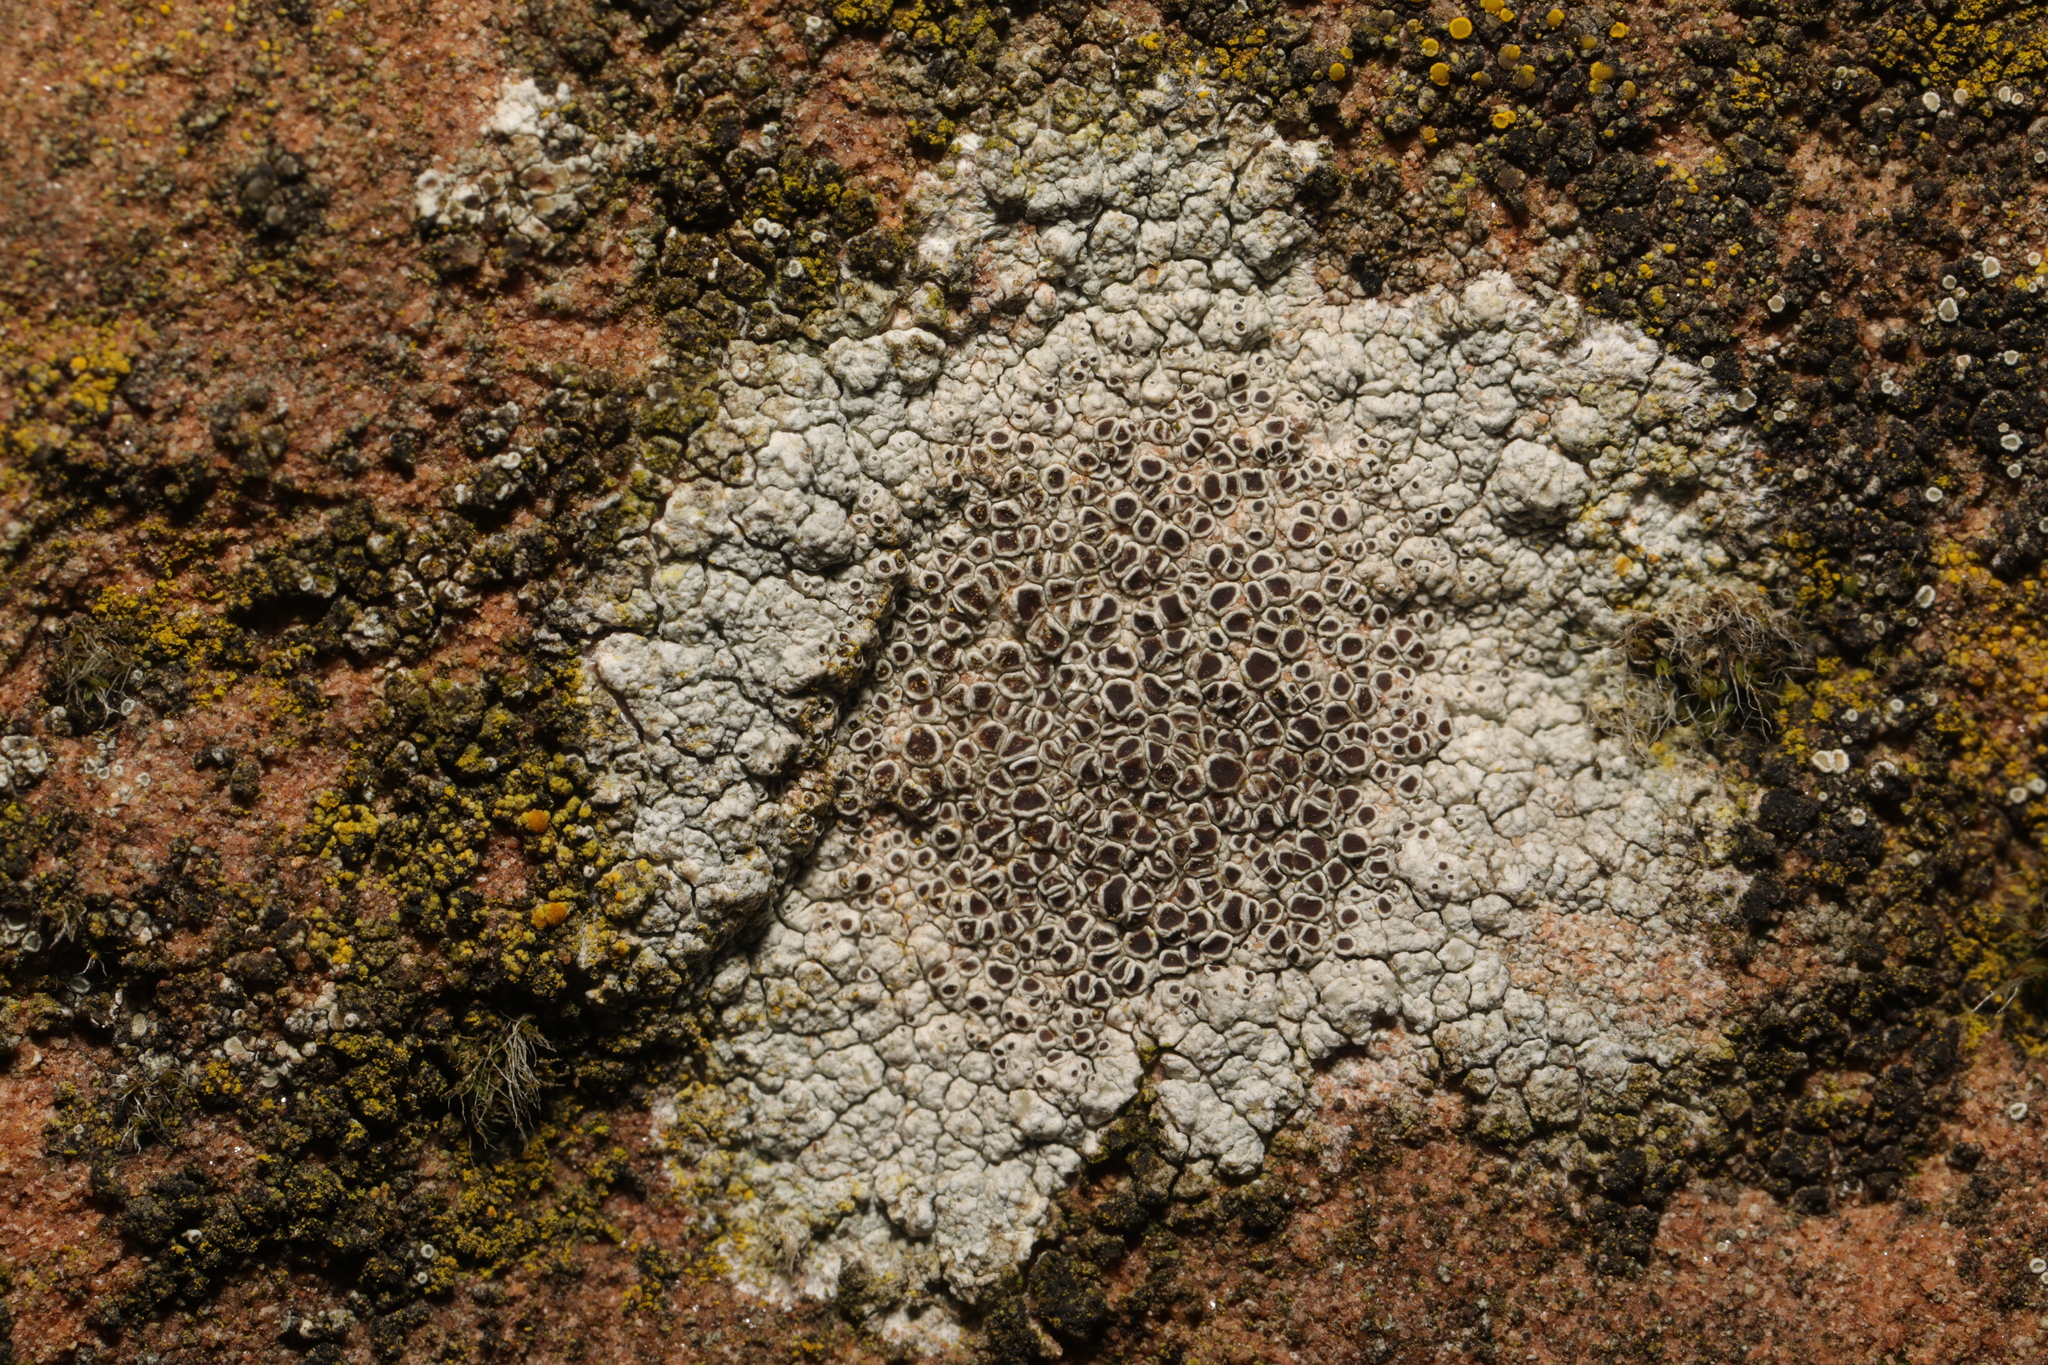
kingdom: Fungi
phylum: Ascomycota
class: Lecanoromycetes
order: Lecanorales
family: Lecanoraceae
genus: Lecanora
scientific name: Lecanora campestris
